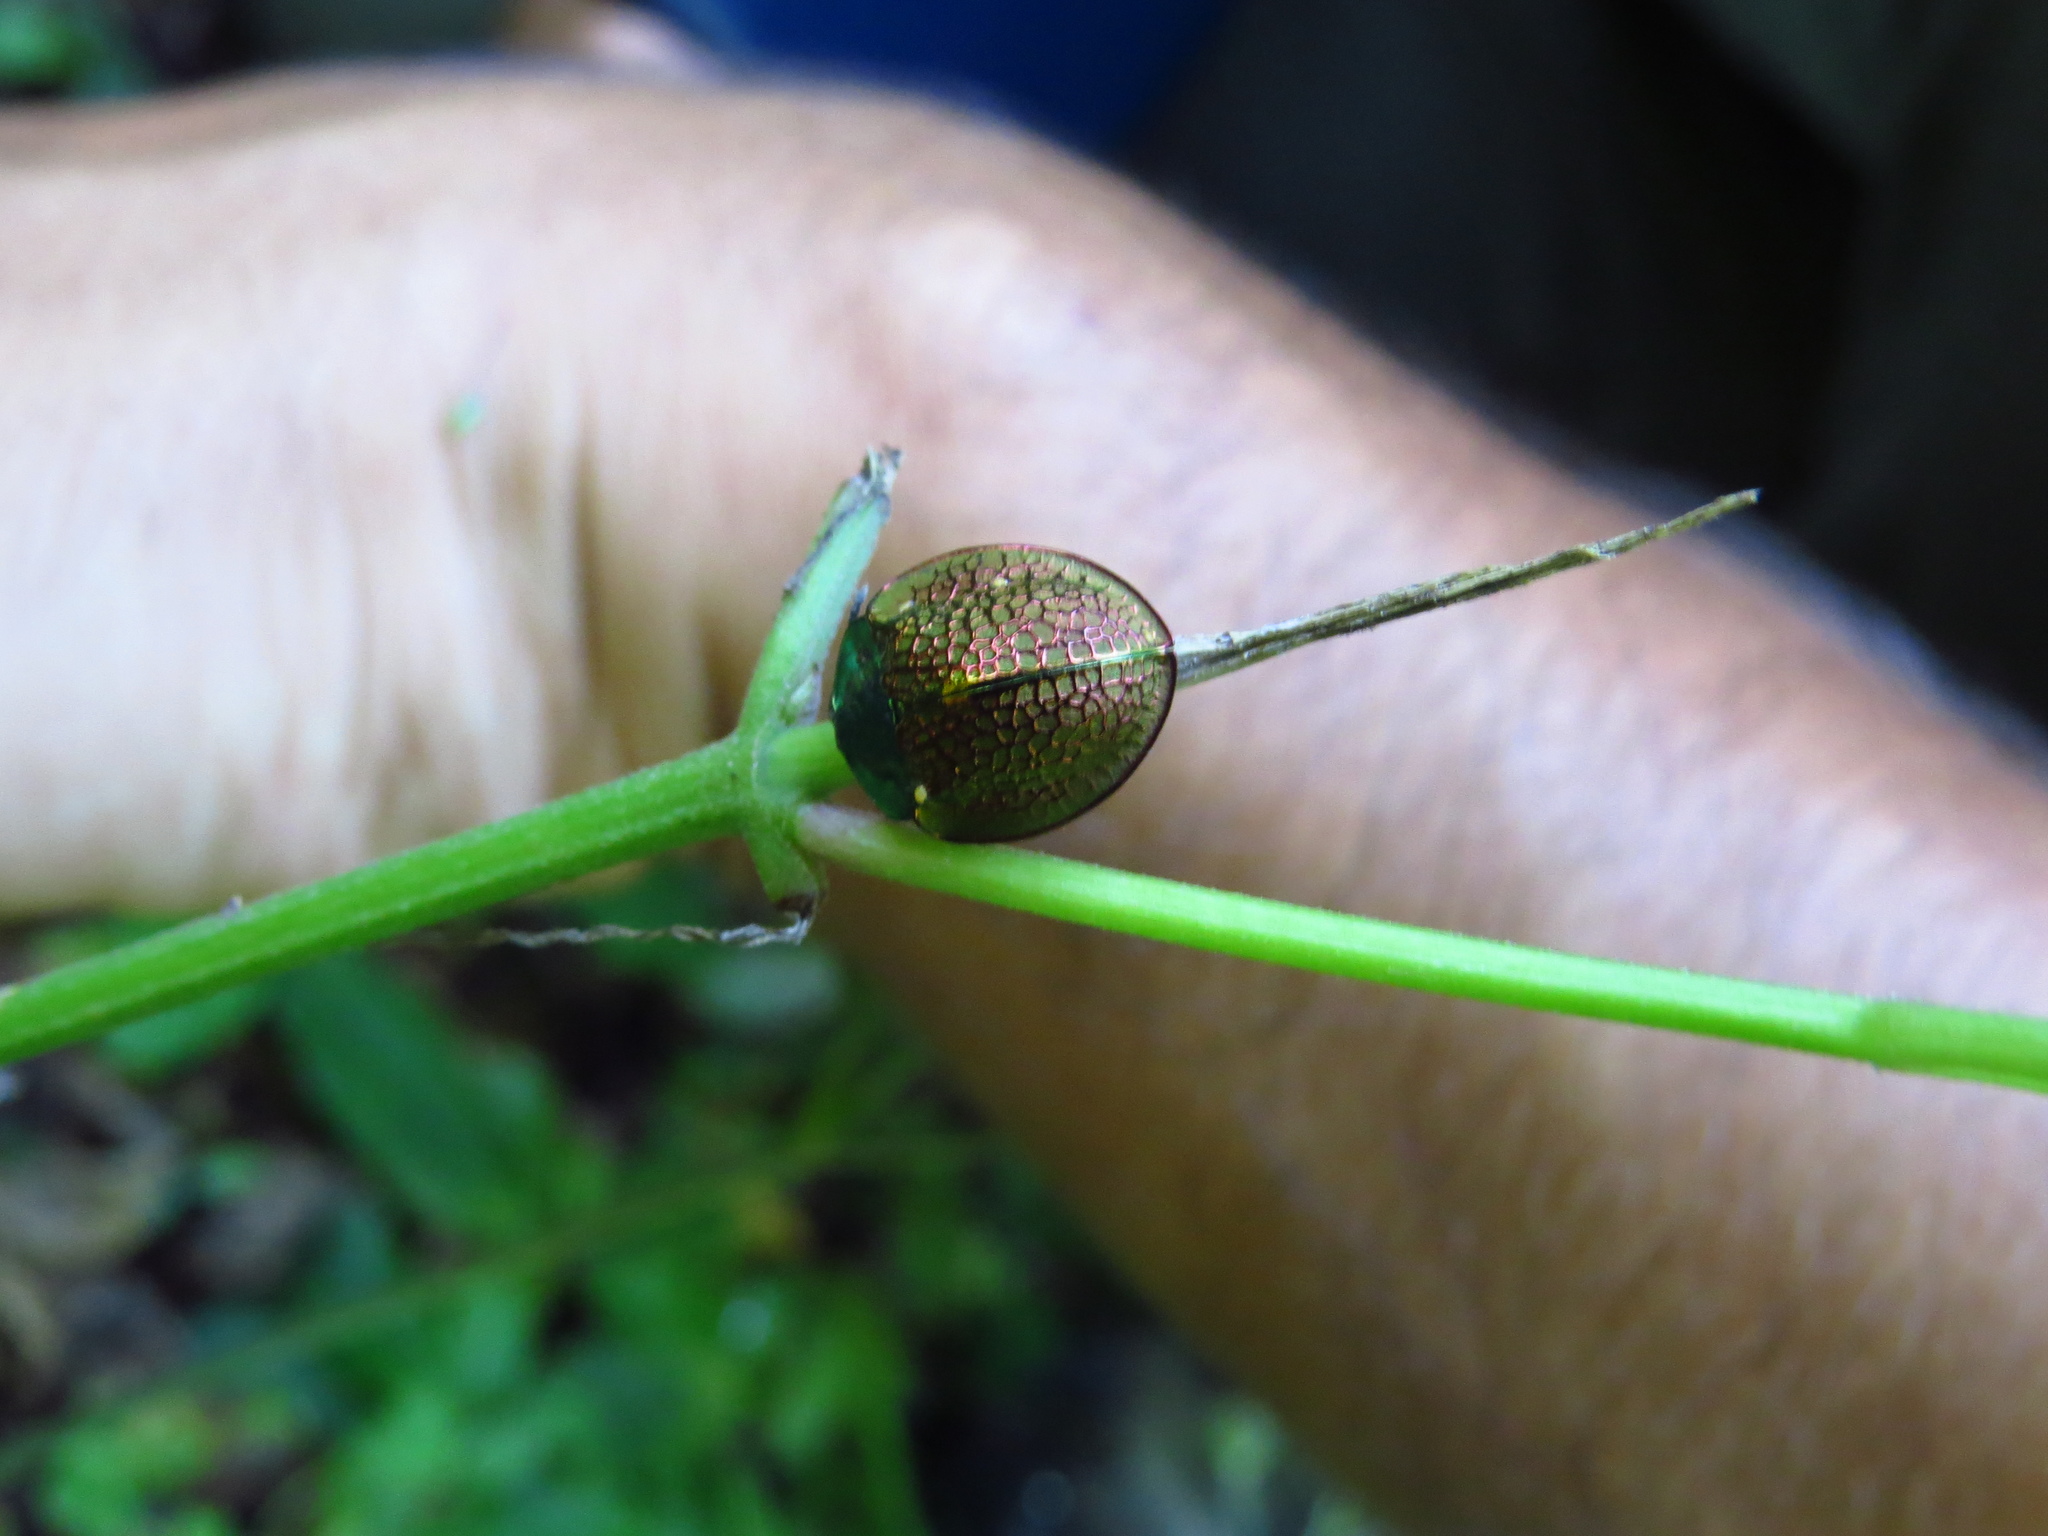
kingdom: Animalia
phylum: Arthropoda
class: Insecta
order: Coleoptera
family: Chrysomelidae
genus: Stolas
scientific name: Stolas indigacea
